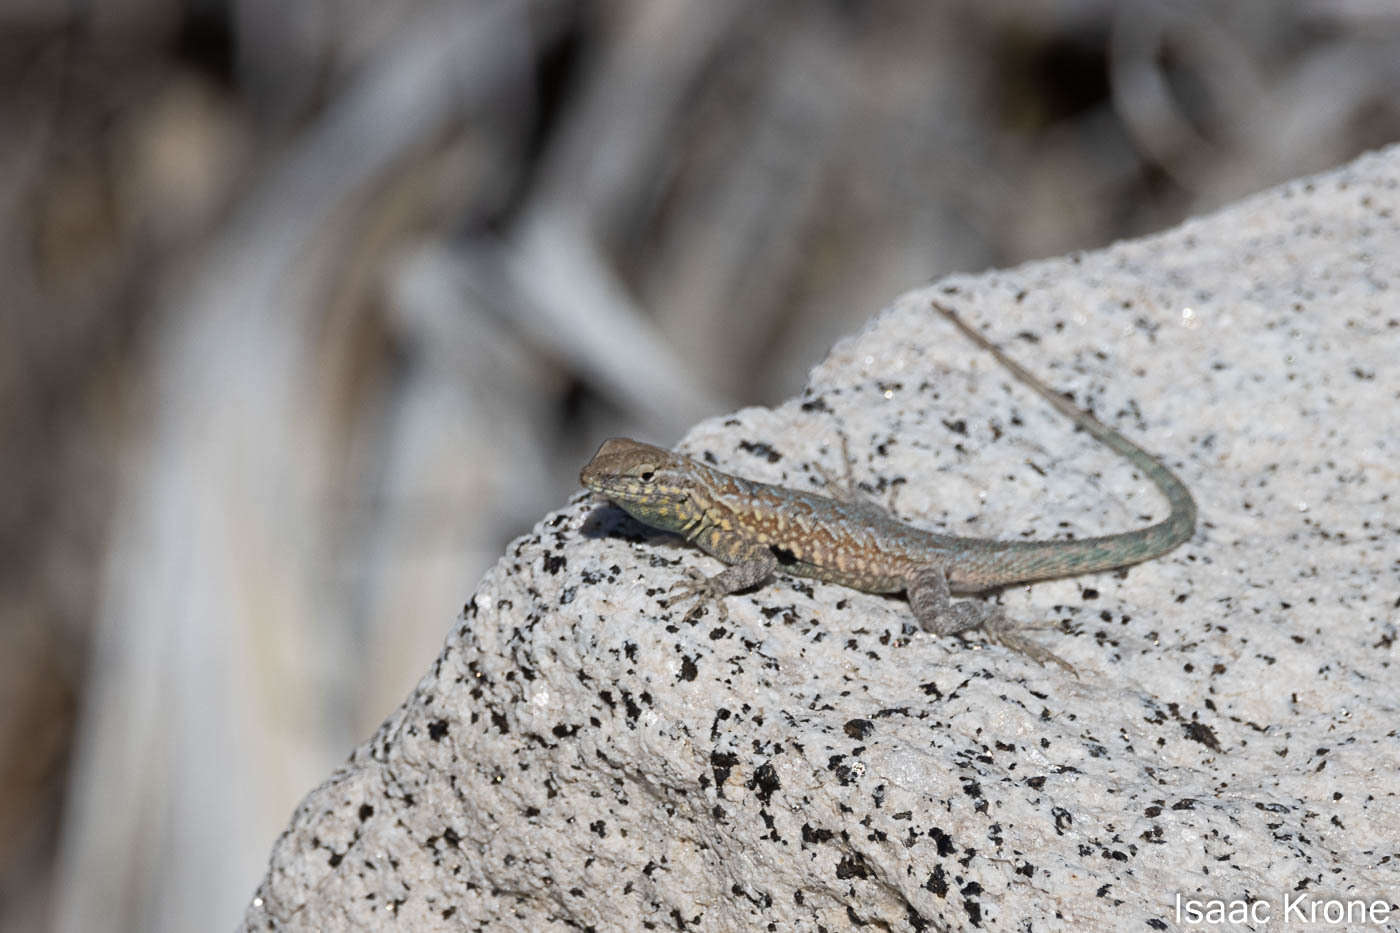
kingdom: Animalia
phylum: Chordata
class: Squamata
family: Phrynosomatidae
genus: Uta
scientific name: Uta stansburiana
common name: Side-blotched lizard
